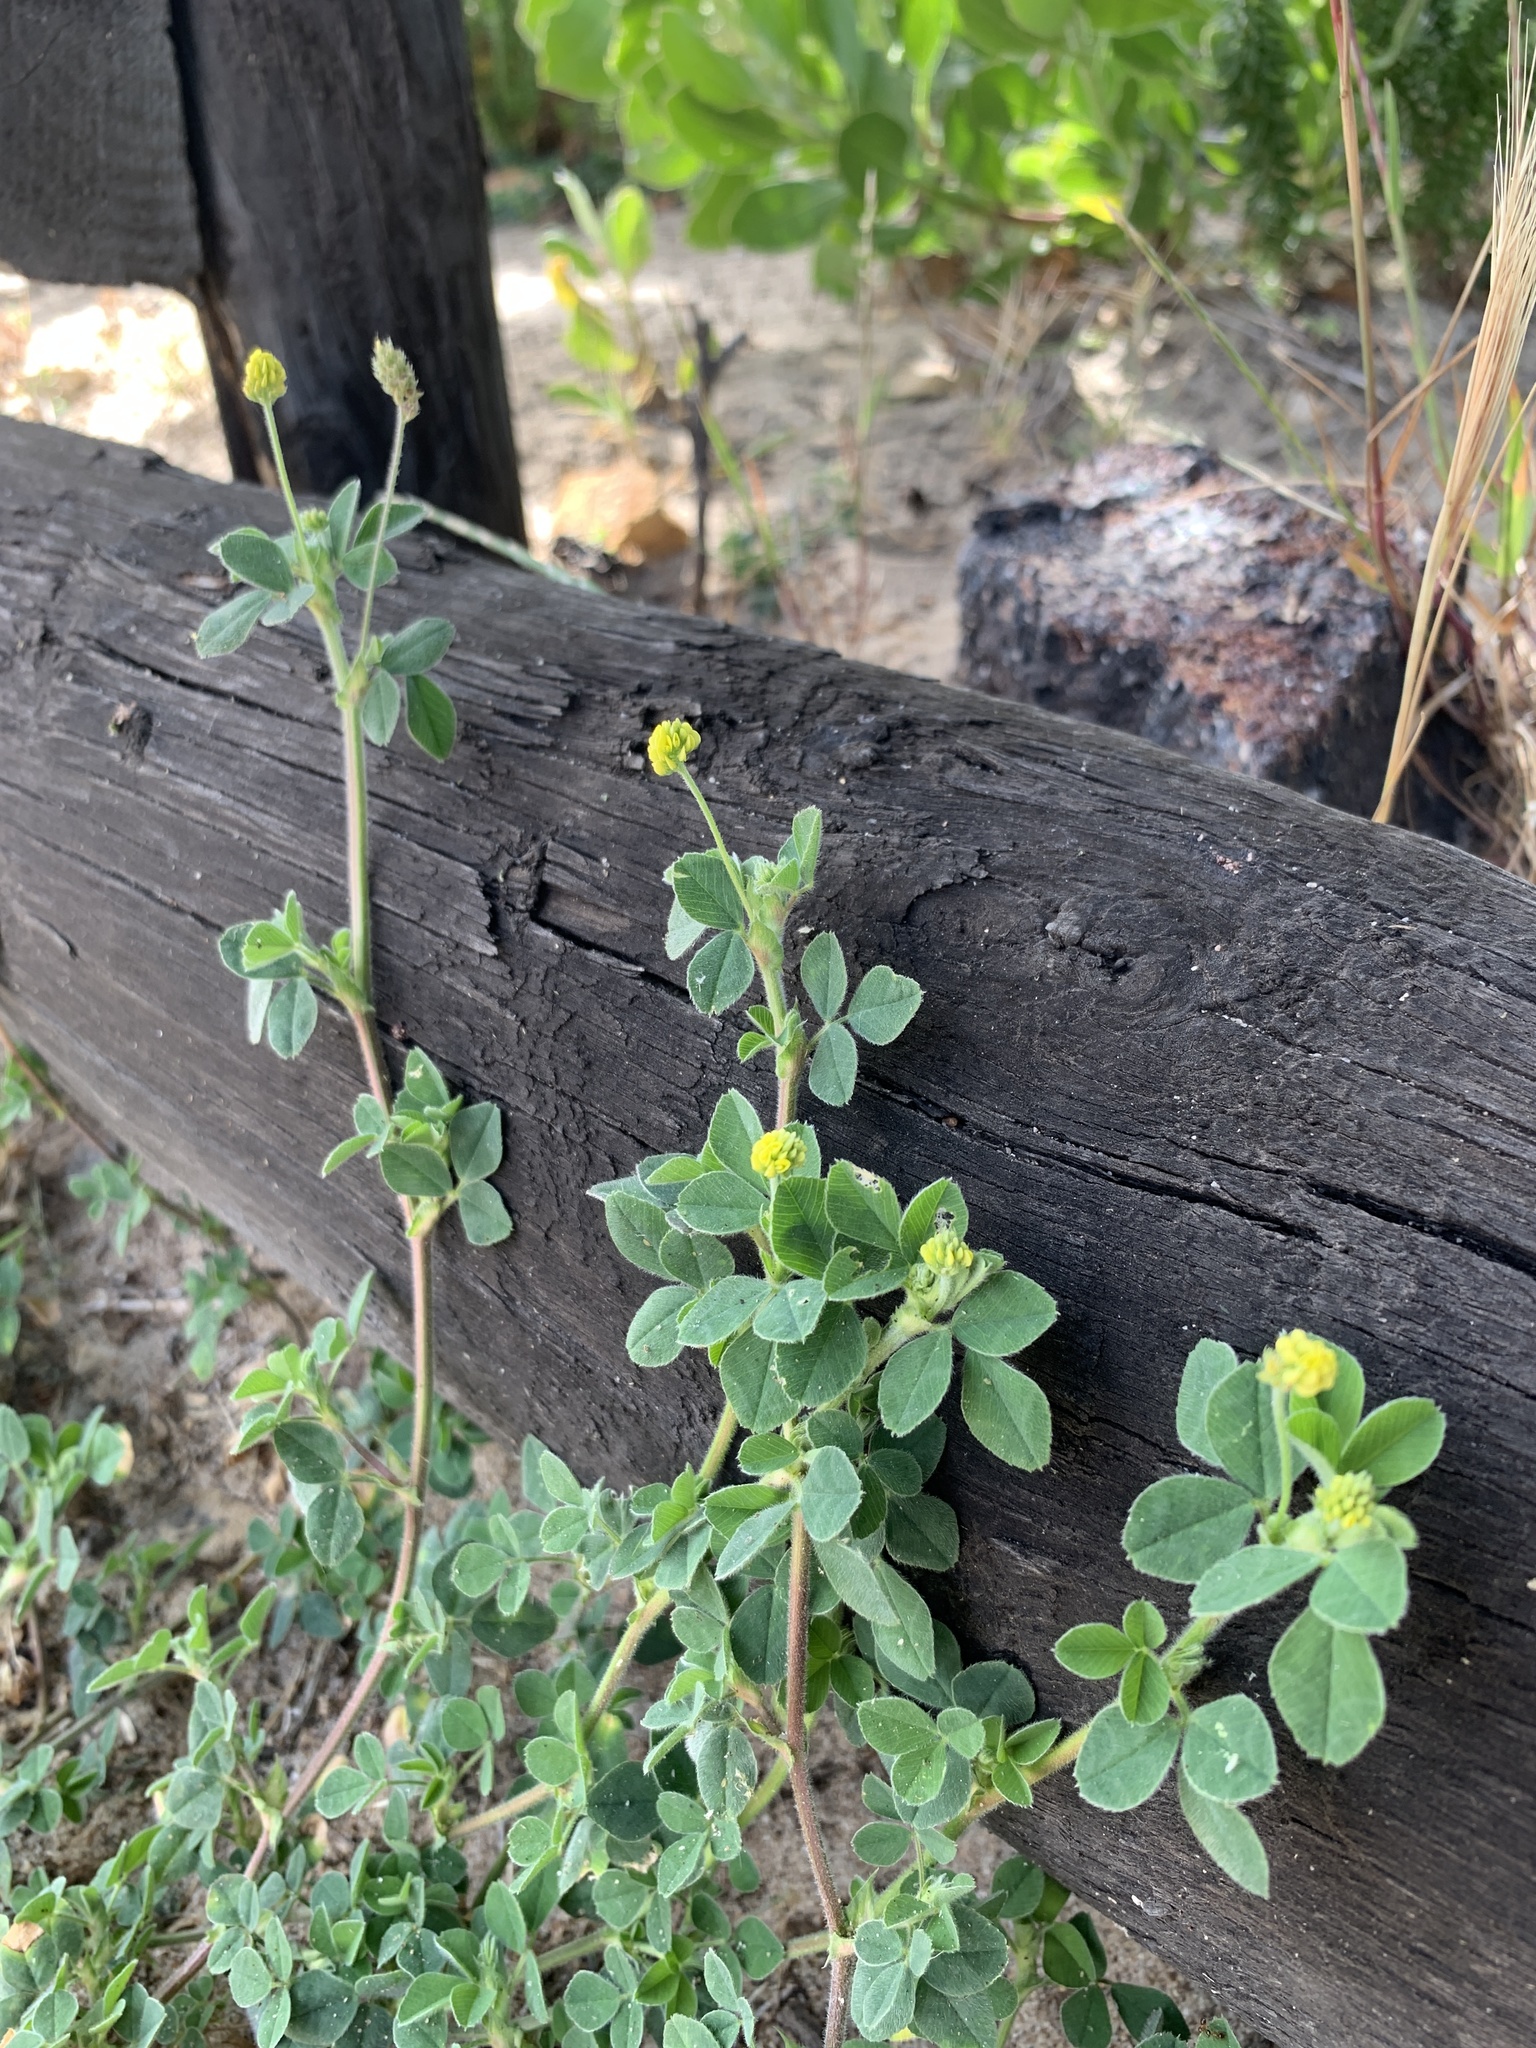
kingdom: Plantae
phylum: Tracheophyta
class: Magnoliopsida
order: Fabales
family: Fabaceae
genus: Medicago
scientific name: Medicago lupulina
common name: Black medick
